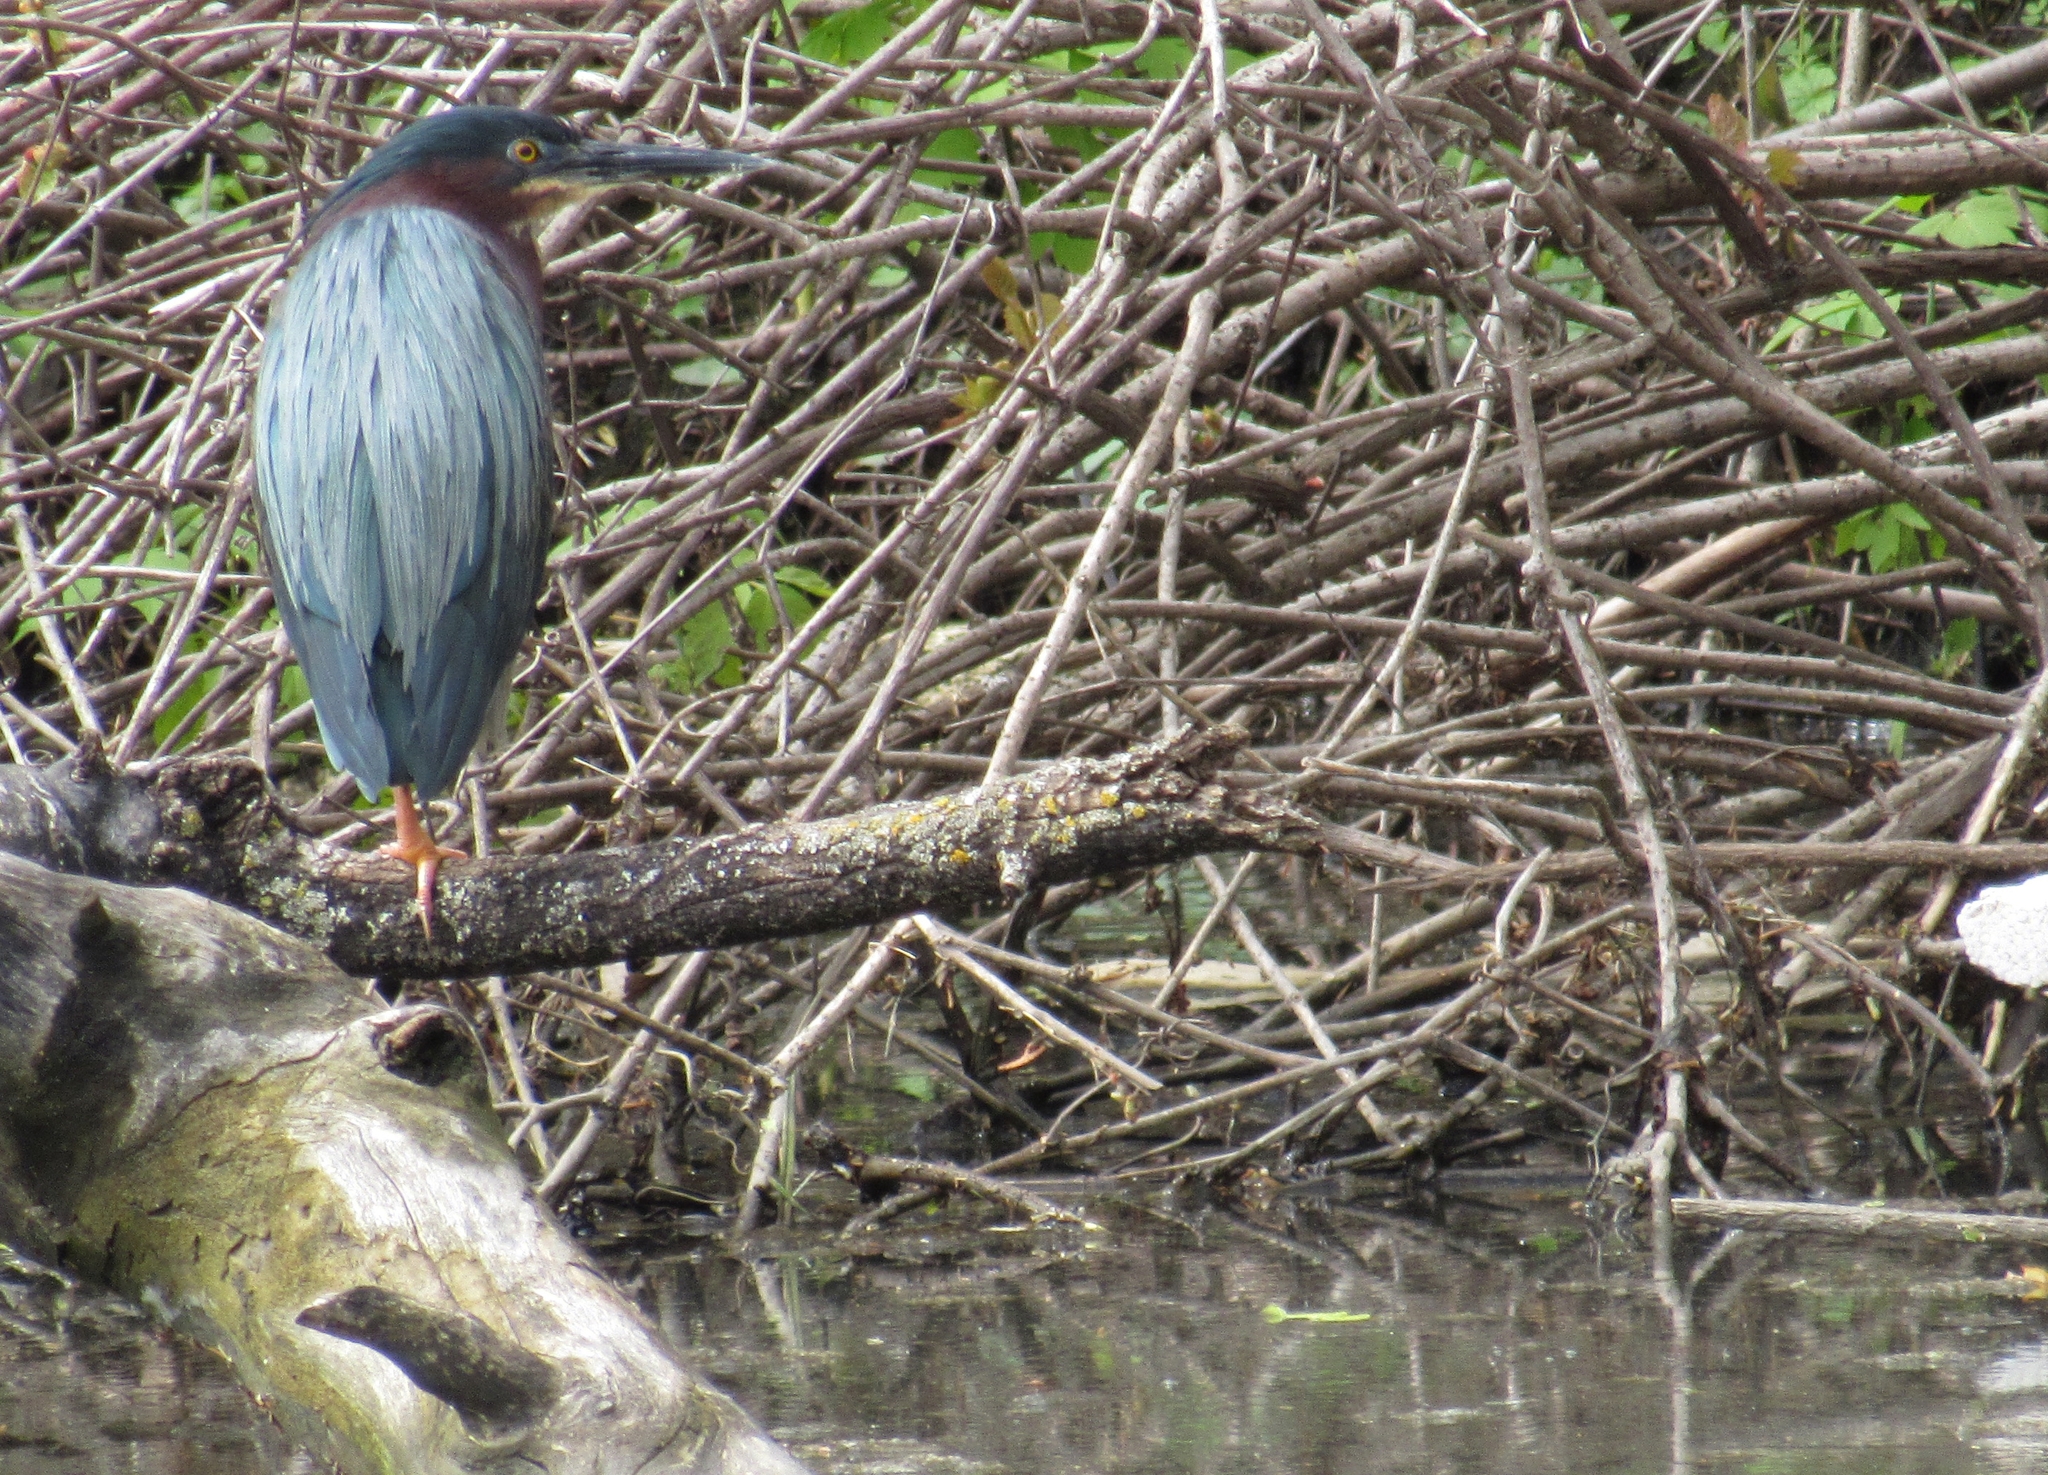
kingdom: Animalia
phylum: Chordata
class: Aves
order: Pelecaniformes
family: Ardeidae
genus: Butorides
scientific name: Butorides virescens
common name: Green heron
